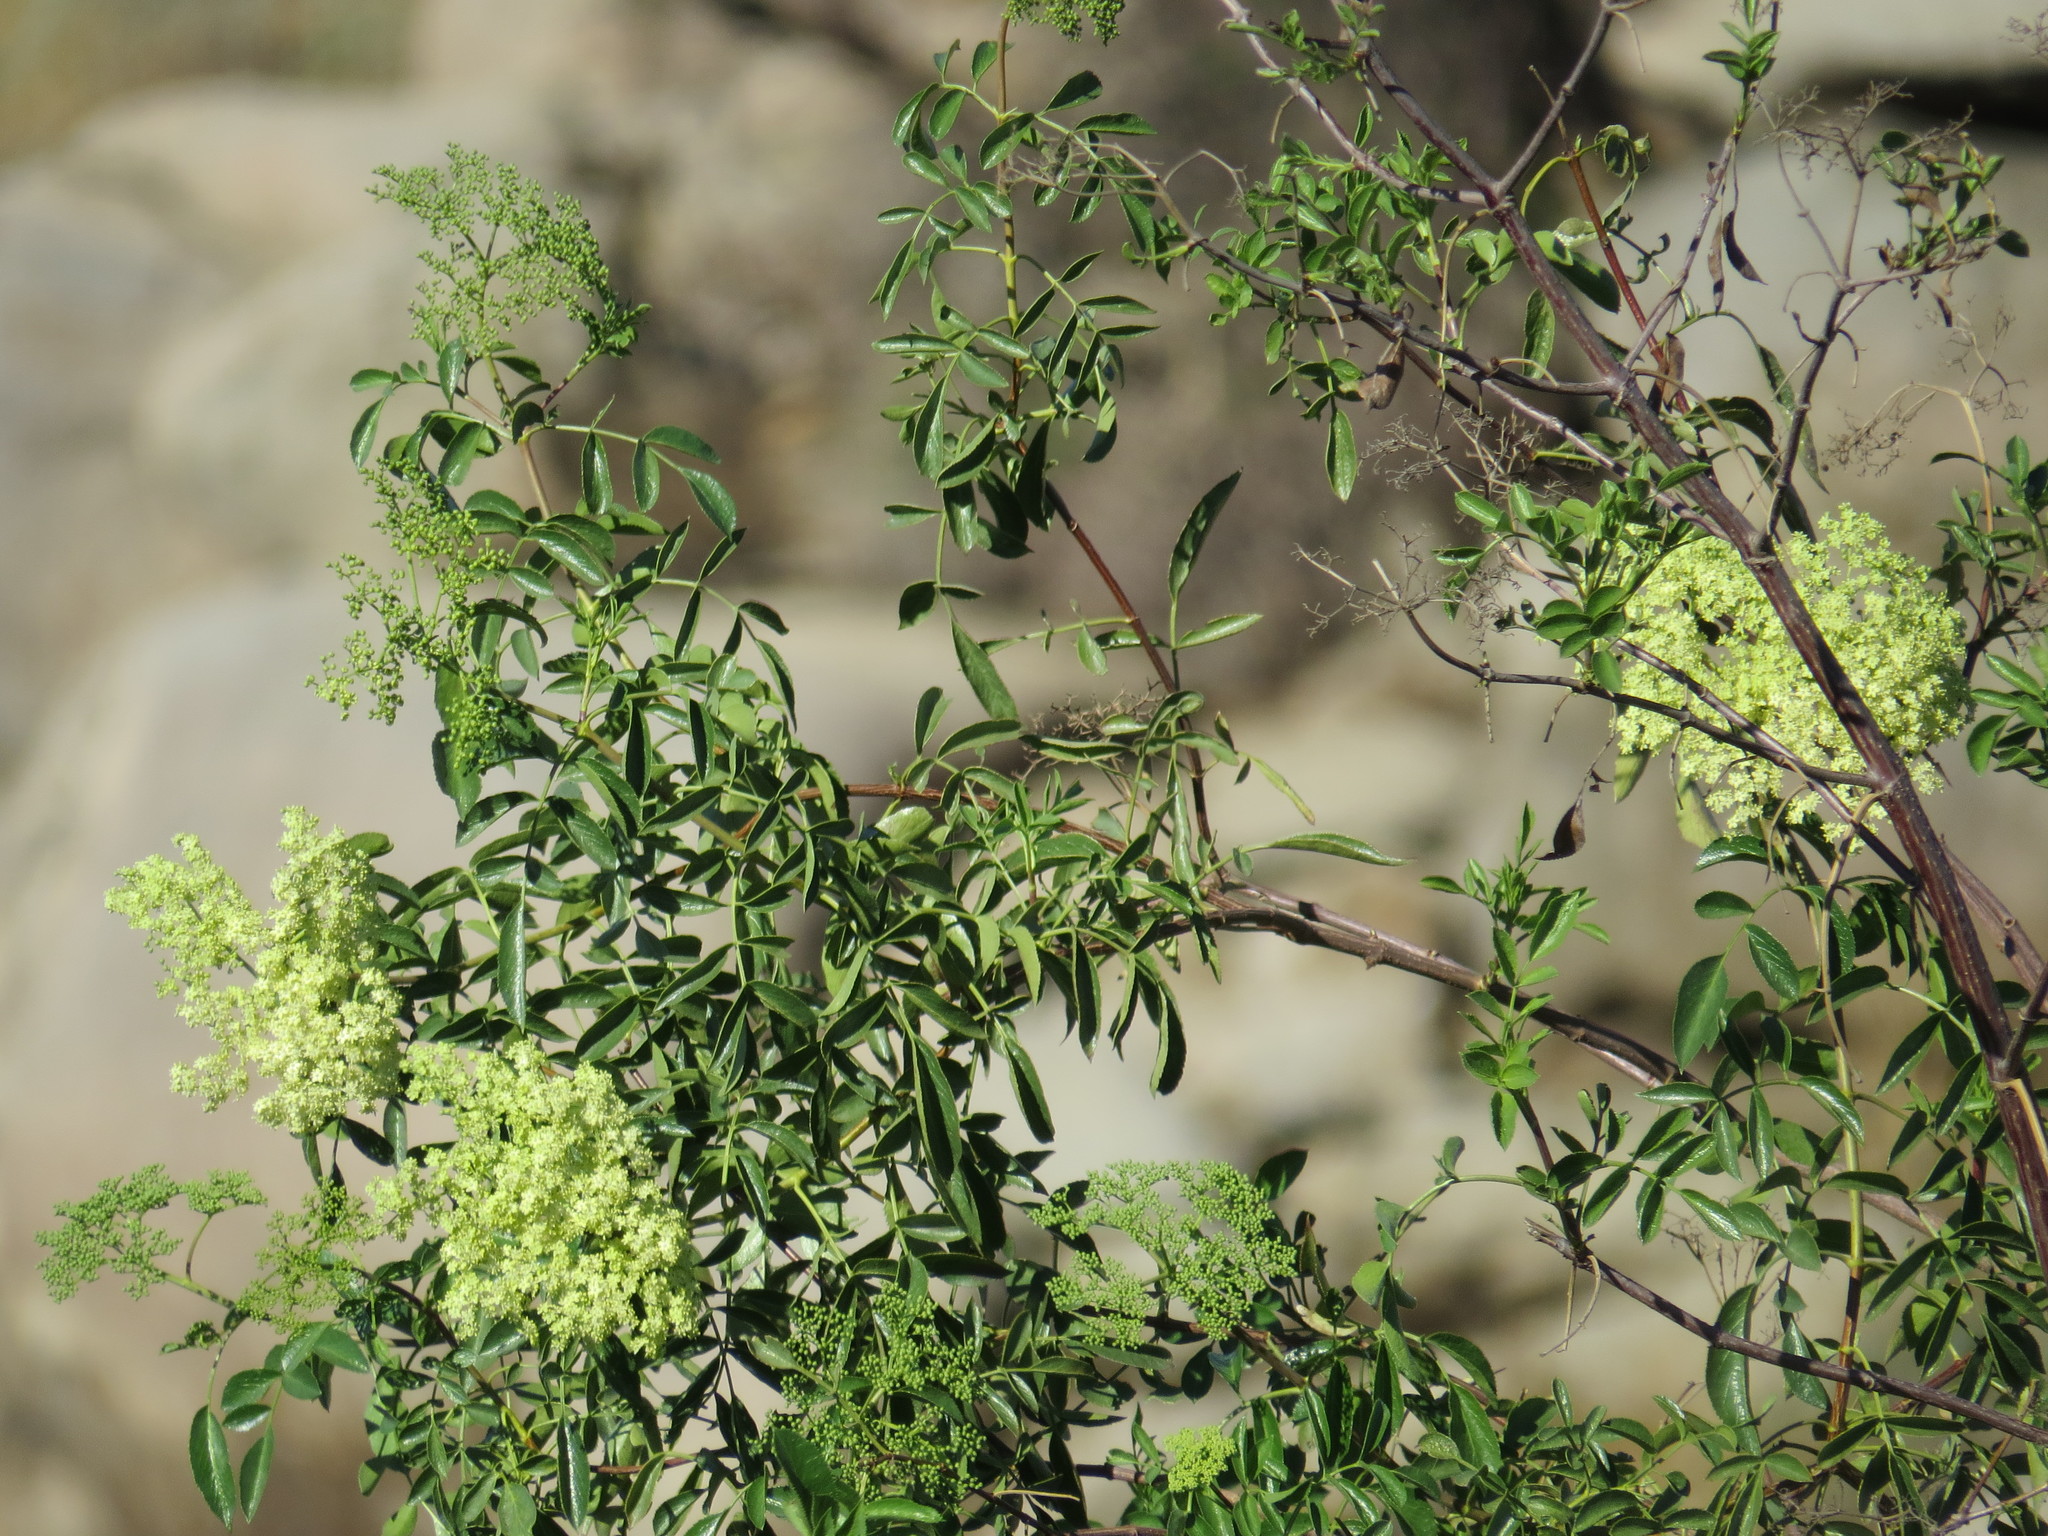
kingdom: Plantae
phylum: Tracheophyta
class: Magnoliopsida
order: Dipsacales
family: Viburnaceae
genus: Sambucus
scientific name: Sambucus cerulea
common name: Blue elder
